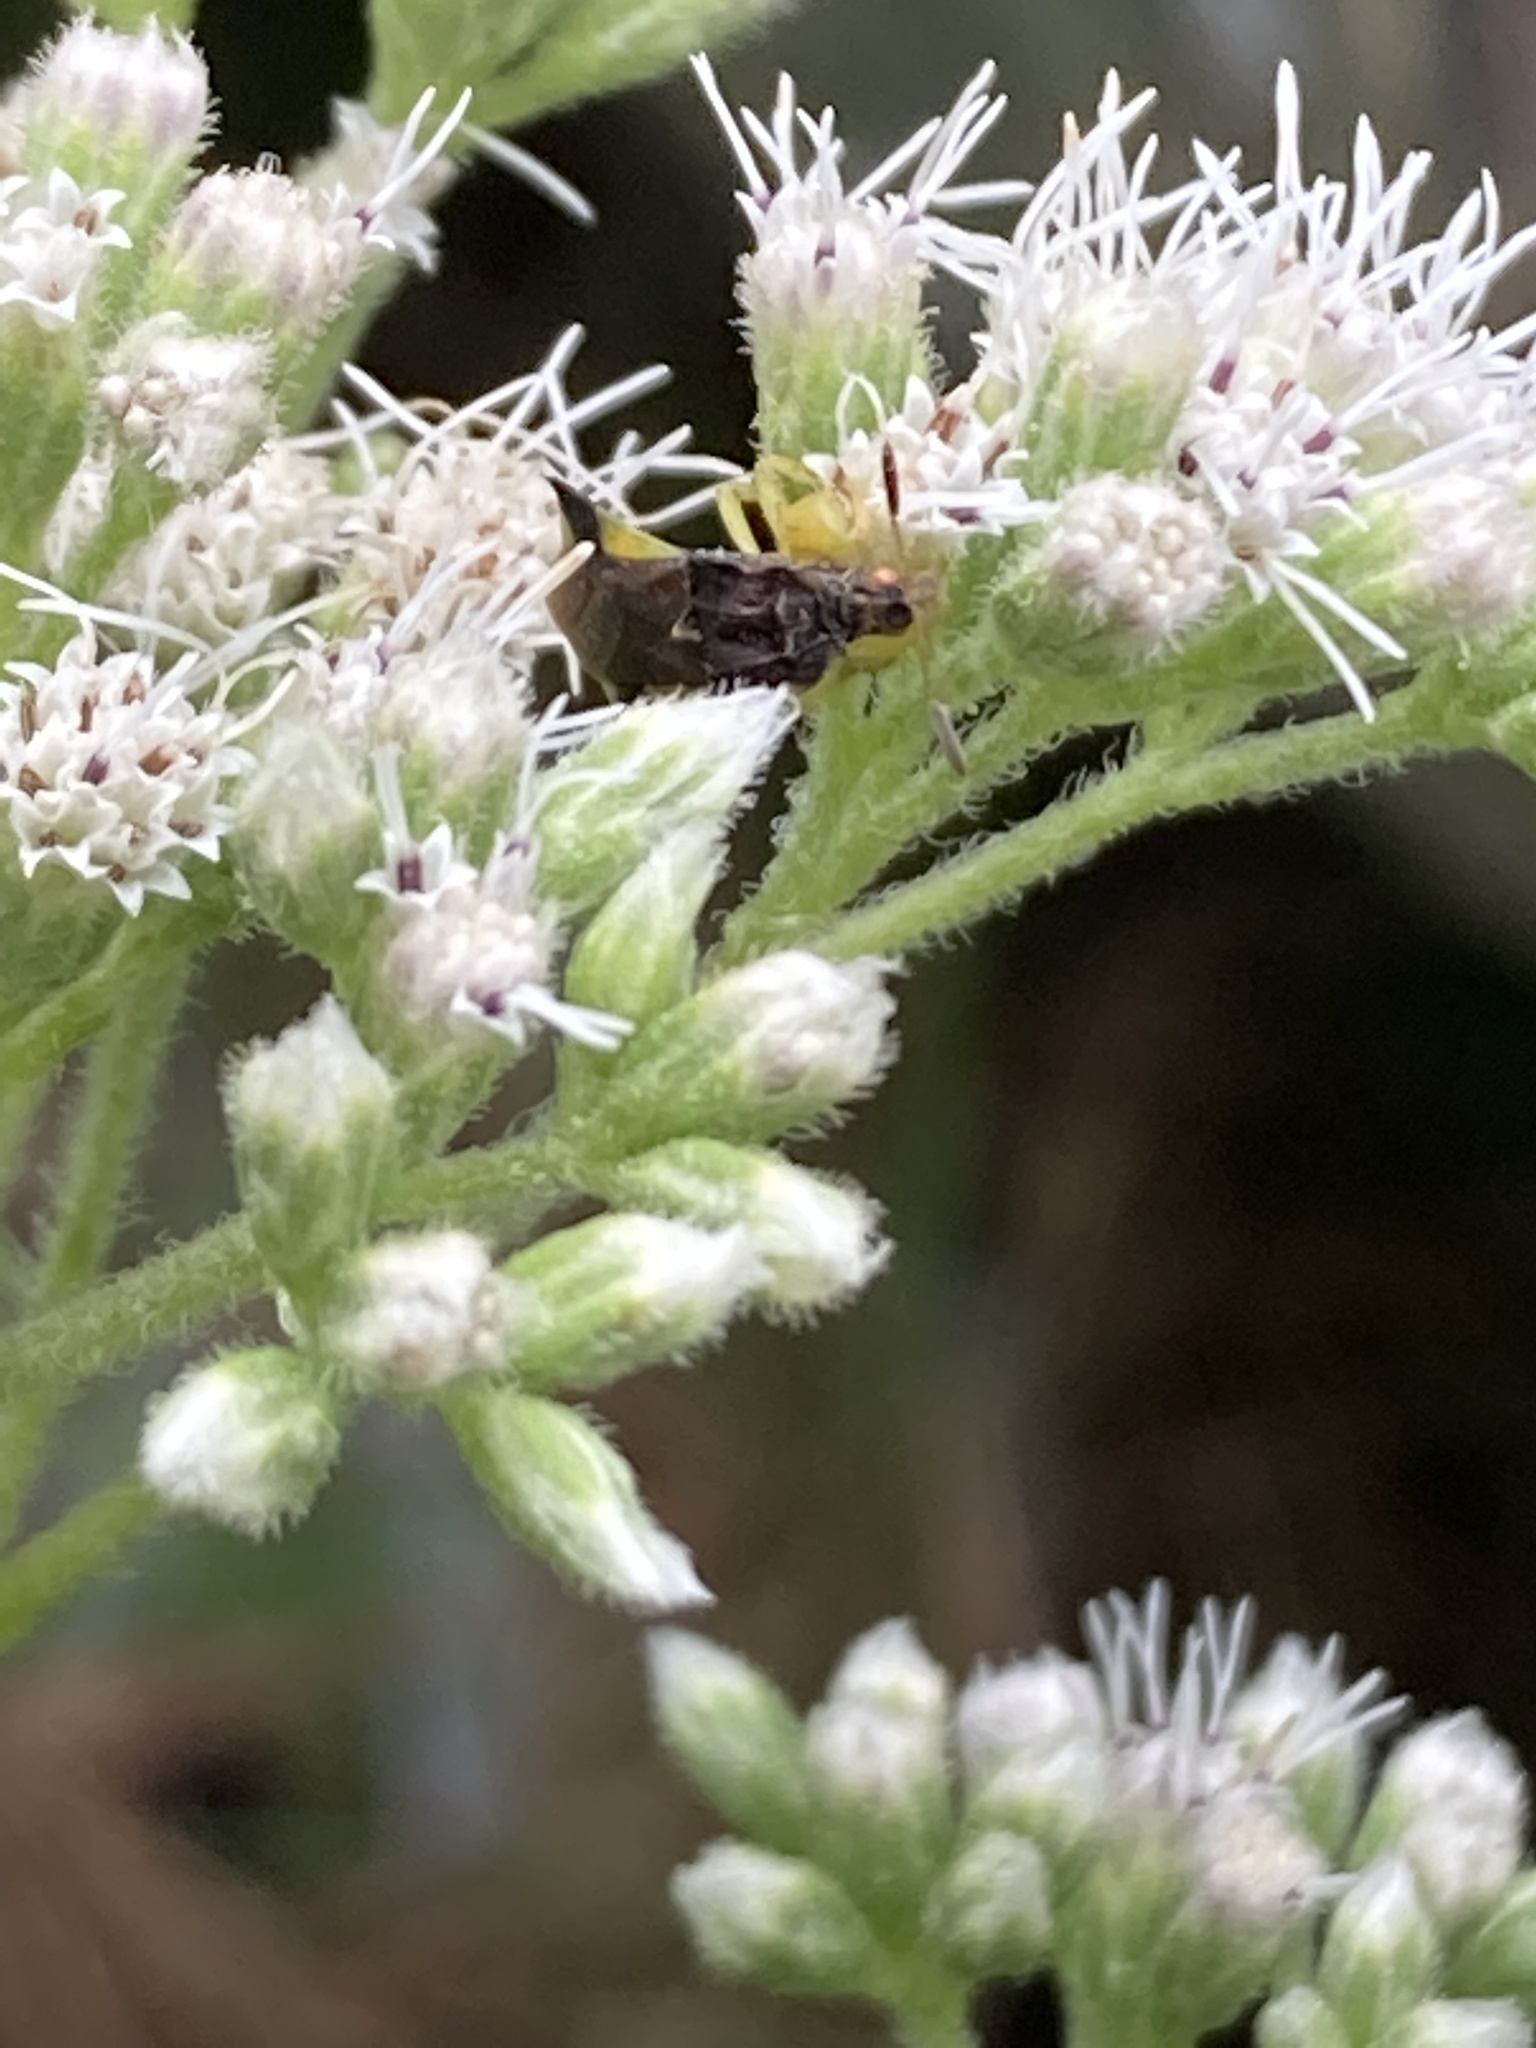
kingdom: Animalia
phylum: Arthropoda
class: Insecta
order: Hemiptera
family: Reduviidae
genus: Phymata
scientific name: Phymata pennsylvanica
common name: Pennsylvania ambush bug
